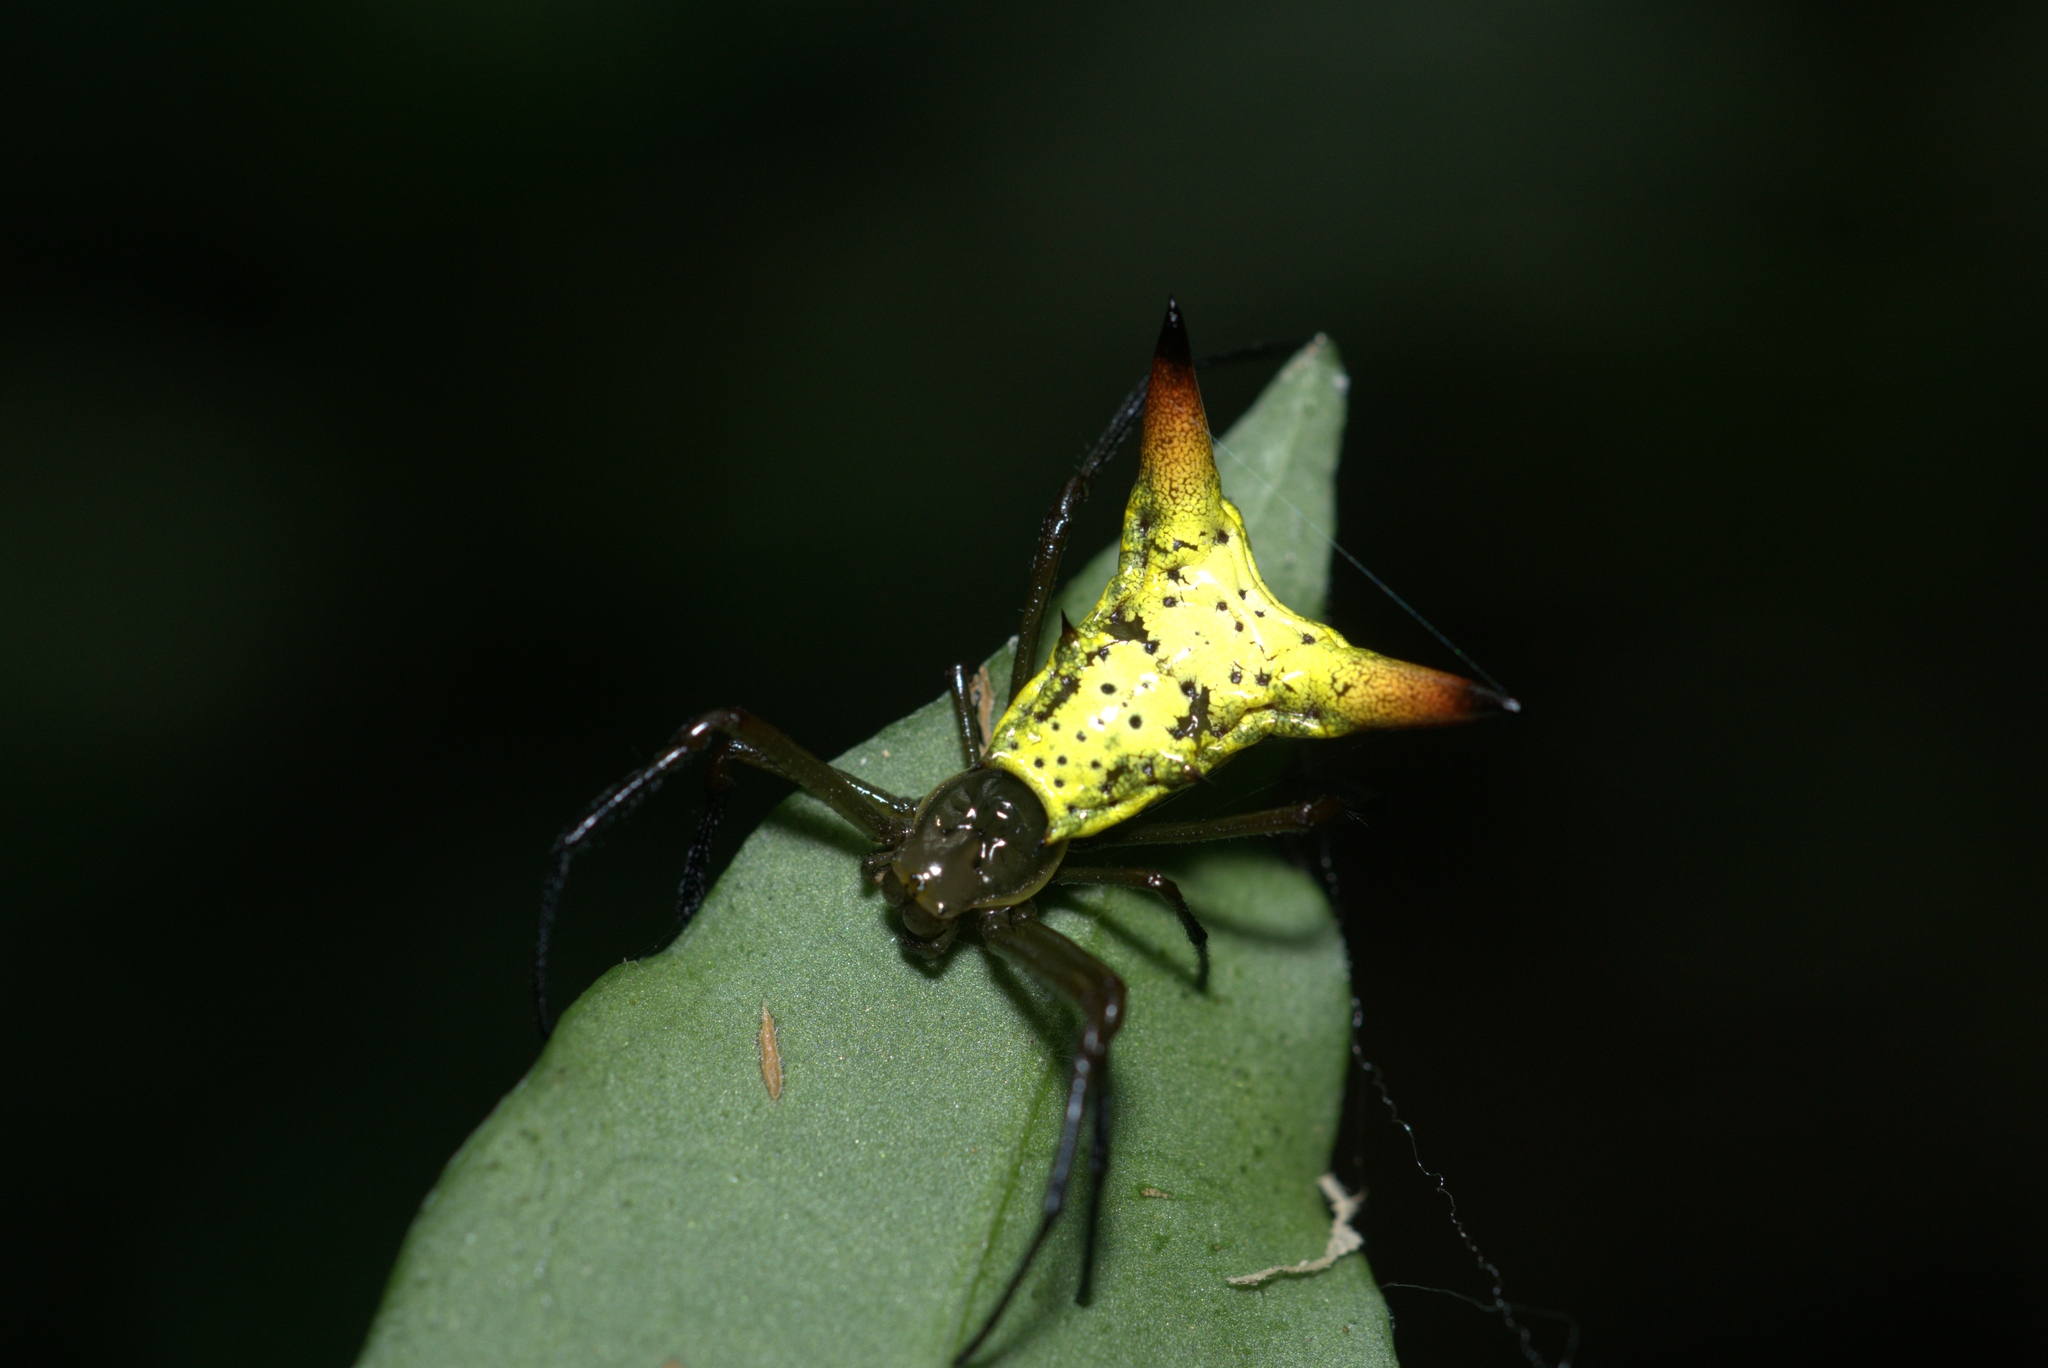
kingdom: Animalia
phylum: Arthropoda
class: Arachnida
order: Araneae
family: Araneidae
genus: Micrathena
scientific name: Micrathena crassispina
